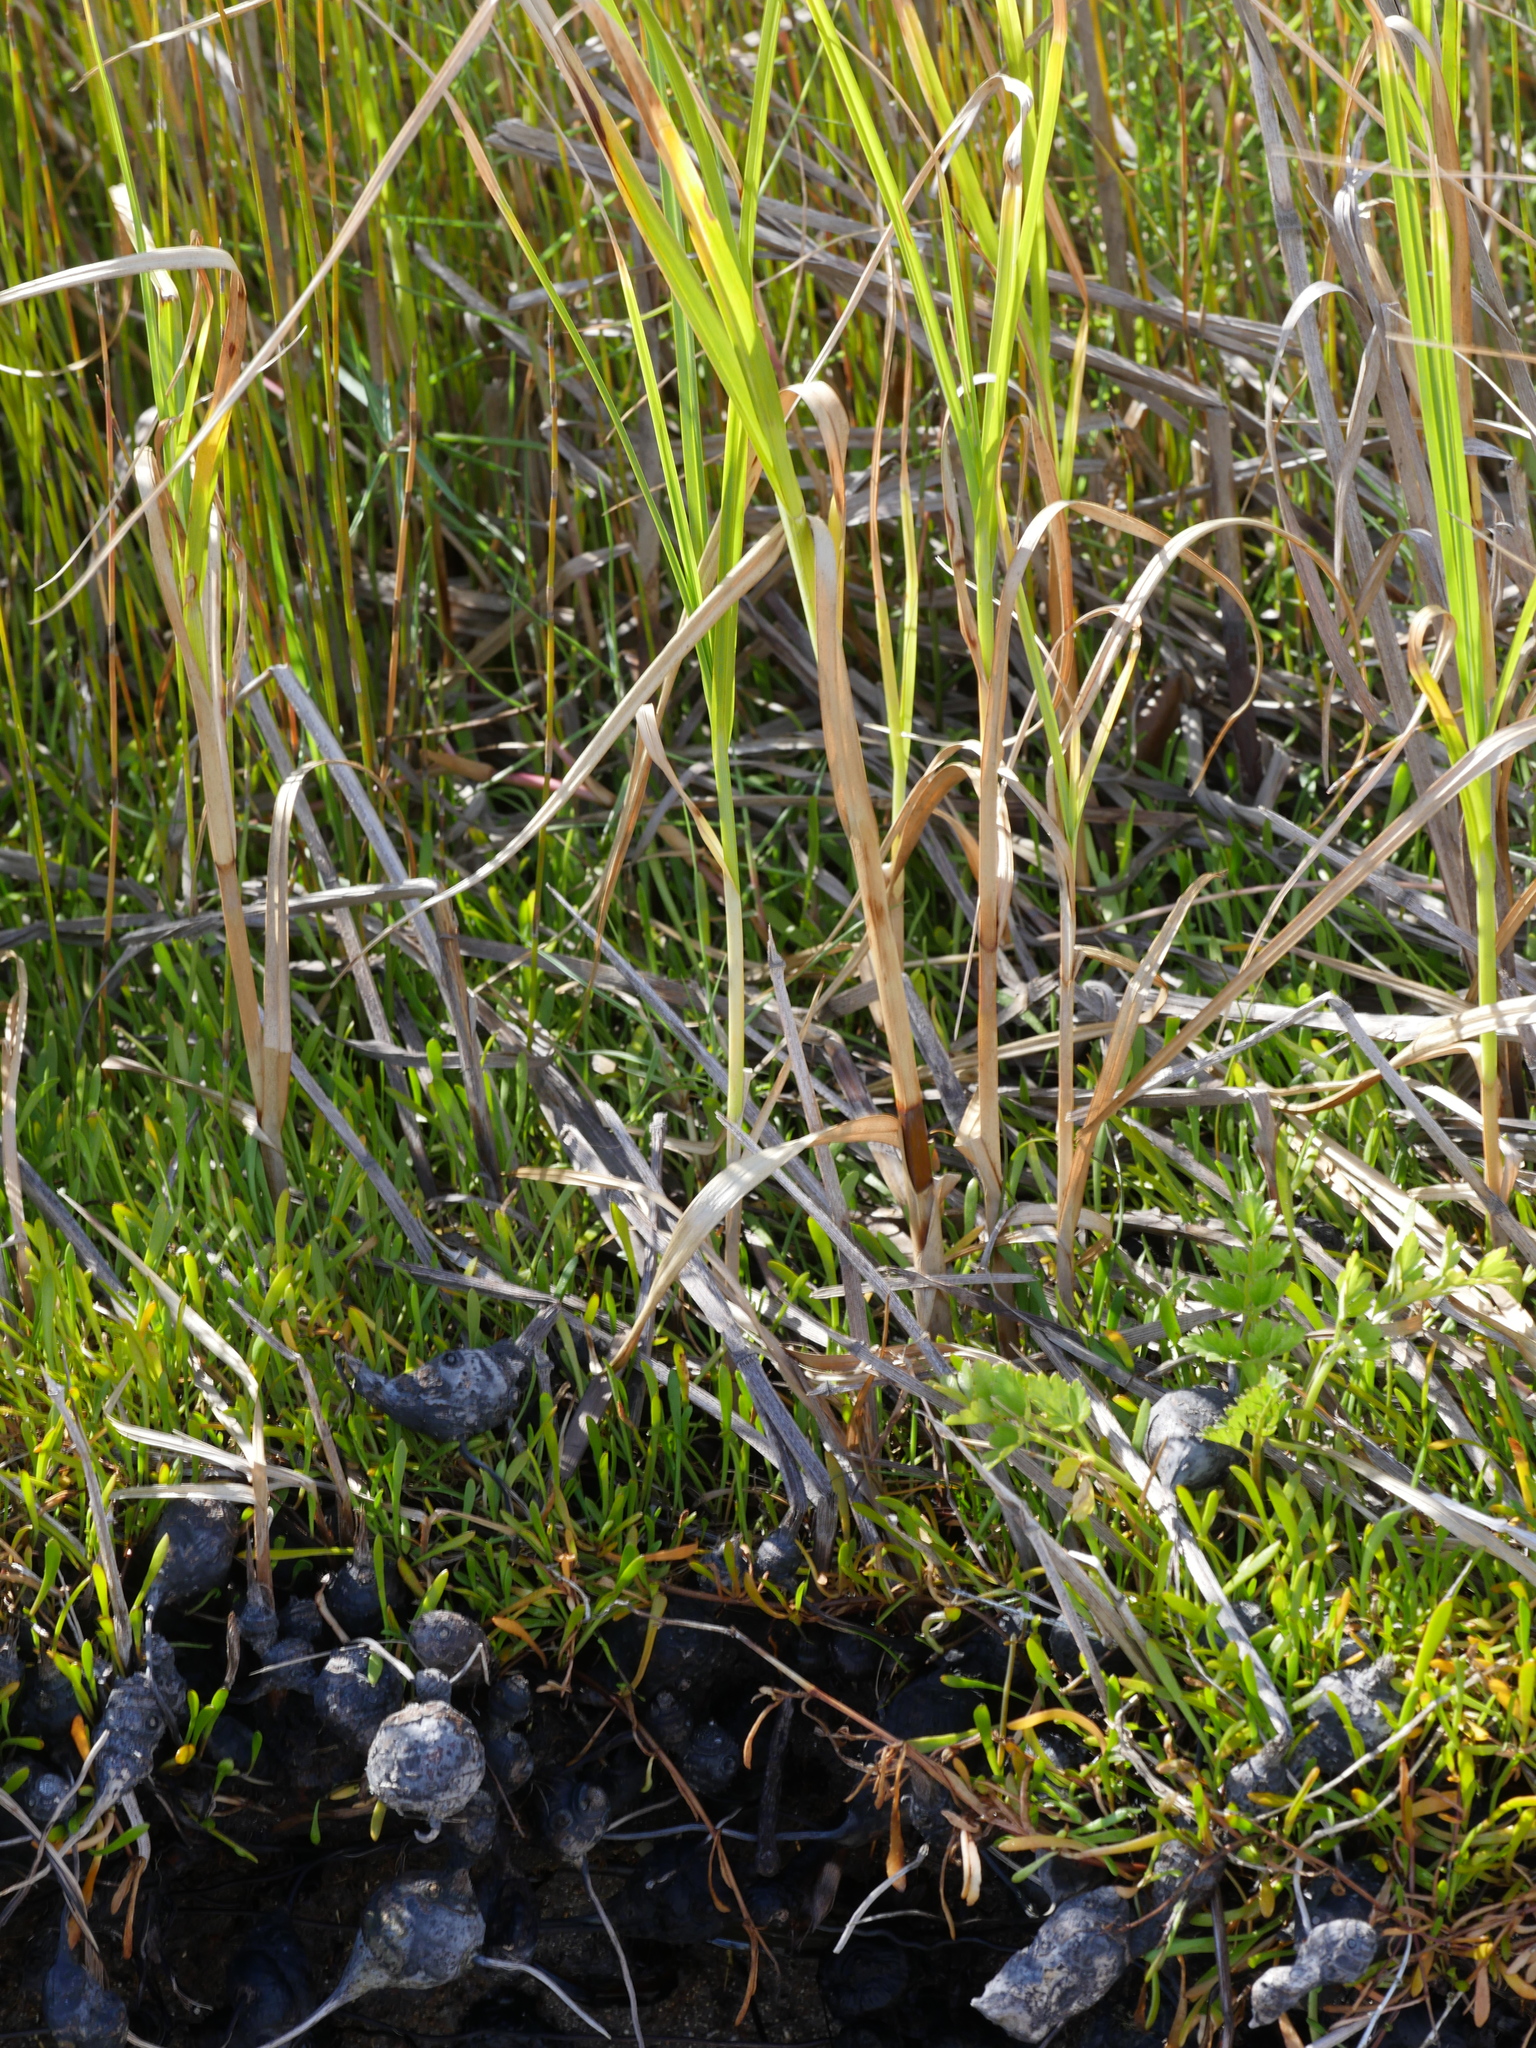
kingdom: Plantae
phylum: Tracheophyta
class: Liliopsida
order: Poales
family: Cyperaceae
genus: Bolboschoenus
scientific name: Bolboschoenus fluviatilis
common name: River bulrush
